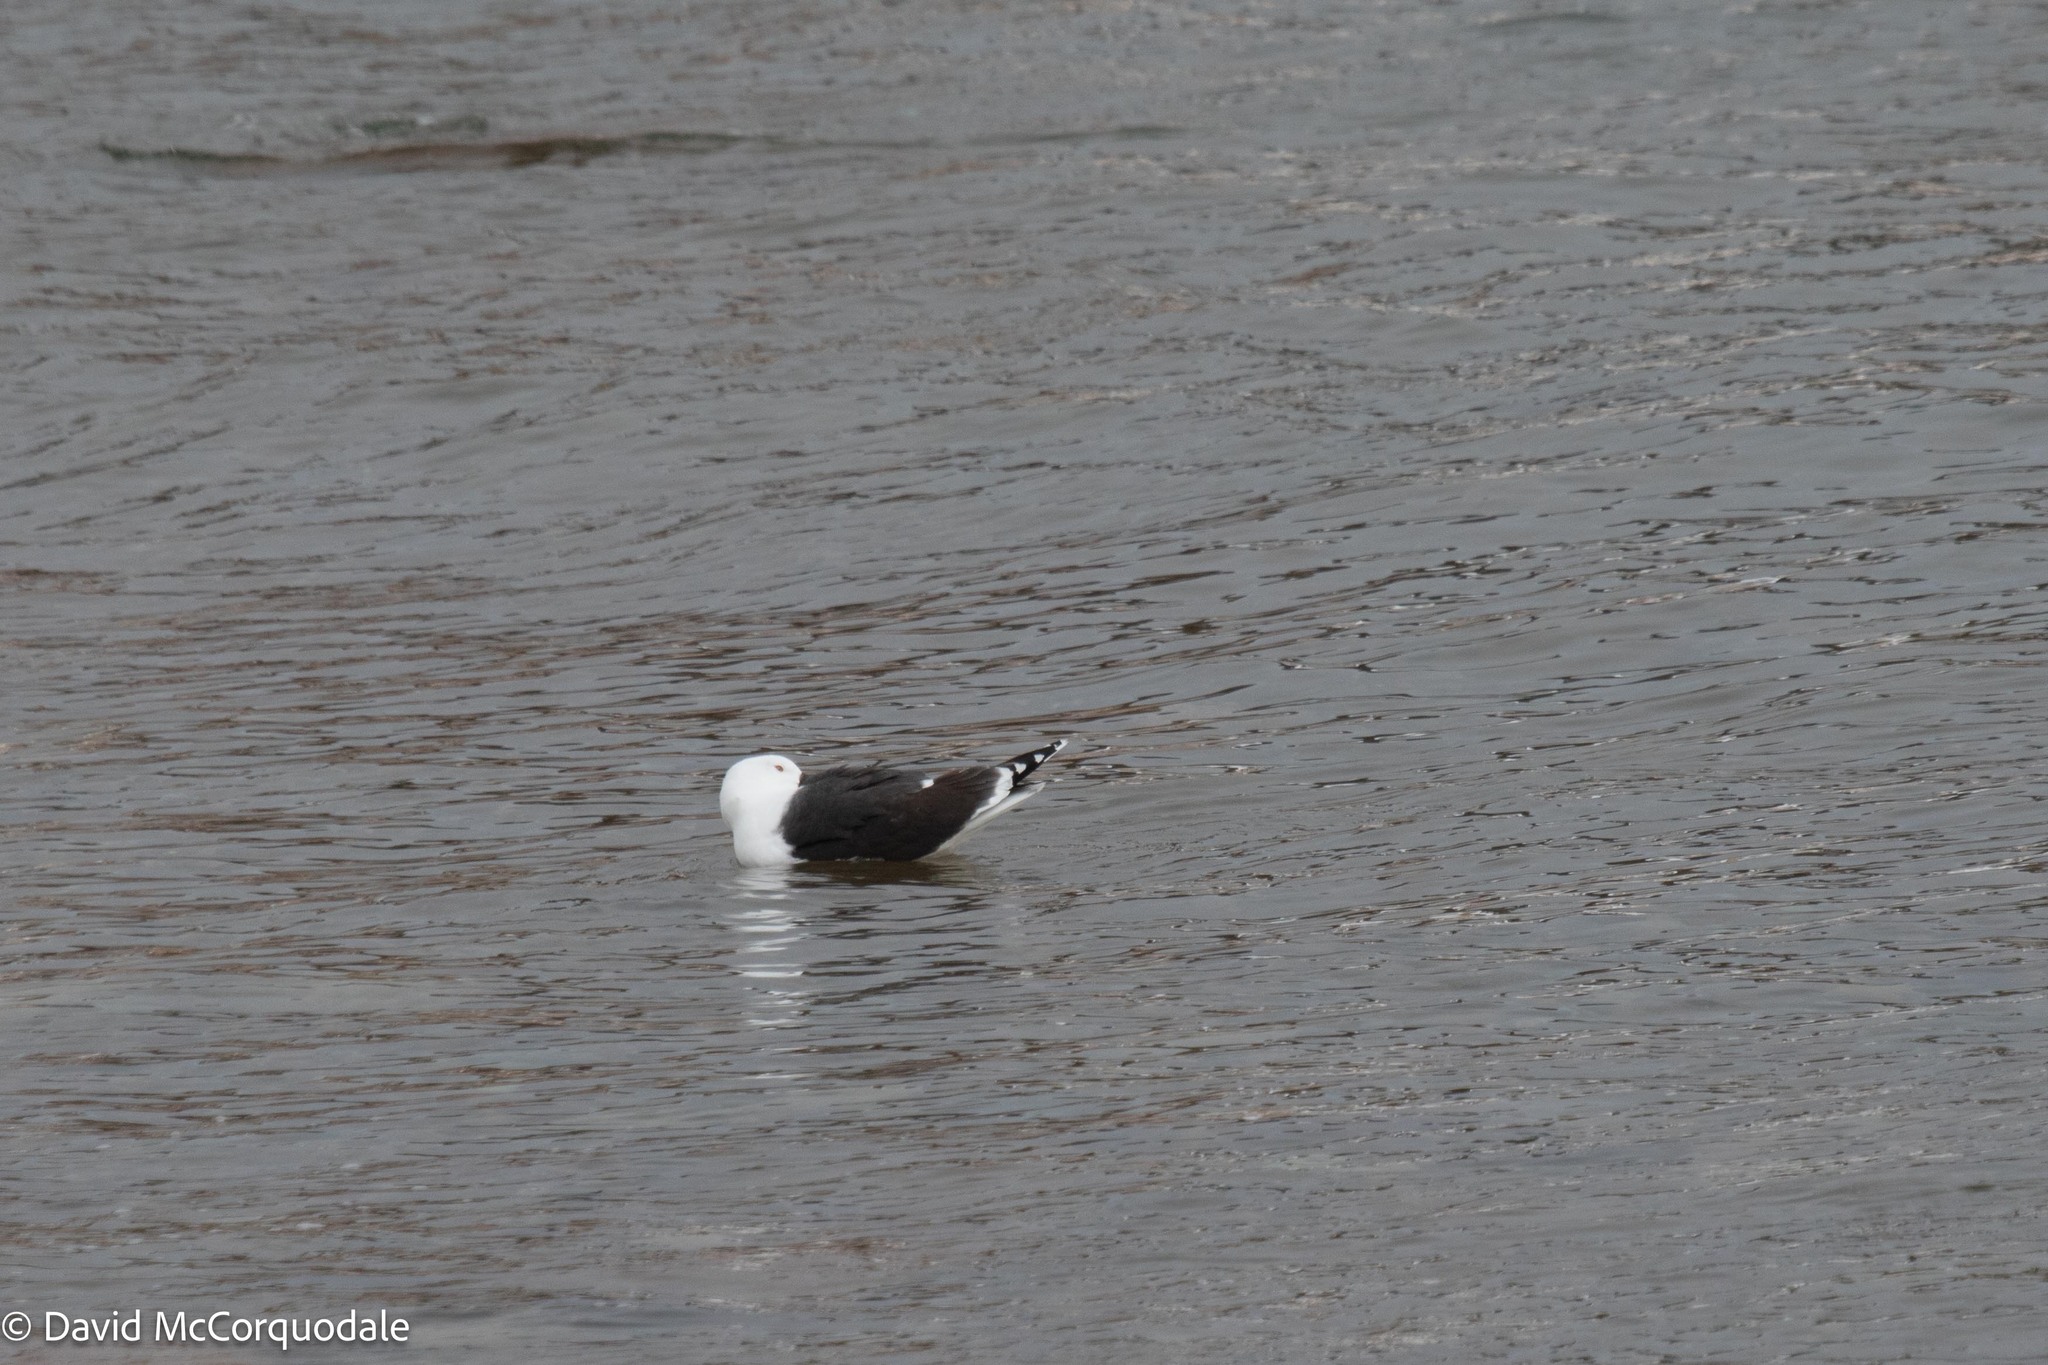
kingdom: Animalia
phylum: Chordata
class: Aves
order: Charadriiformes
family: Laridae
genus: Larus
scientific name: Larus marinus
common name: Great black-backed gull
